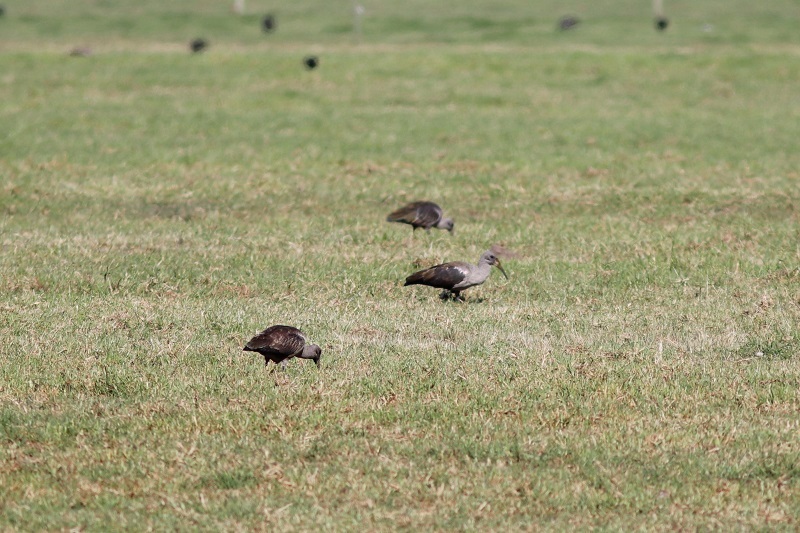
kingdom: Animalia
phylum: Chordata
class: Aves
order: Pelecaniformes
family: Threskiornithidae
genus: Bostrychia
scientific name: Bostrychia hagedash
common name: Hadada ibis
